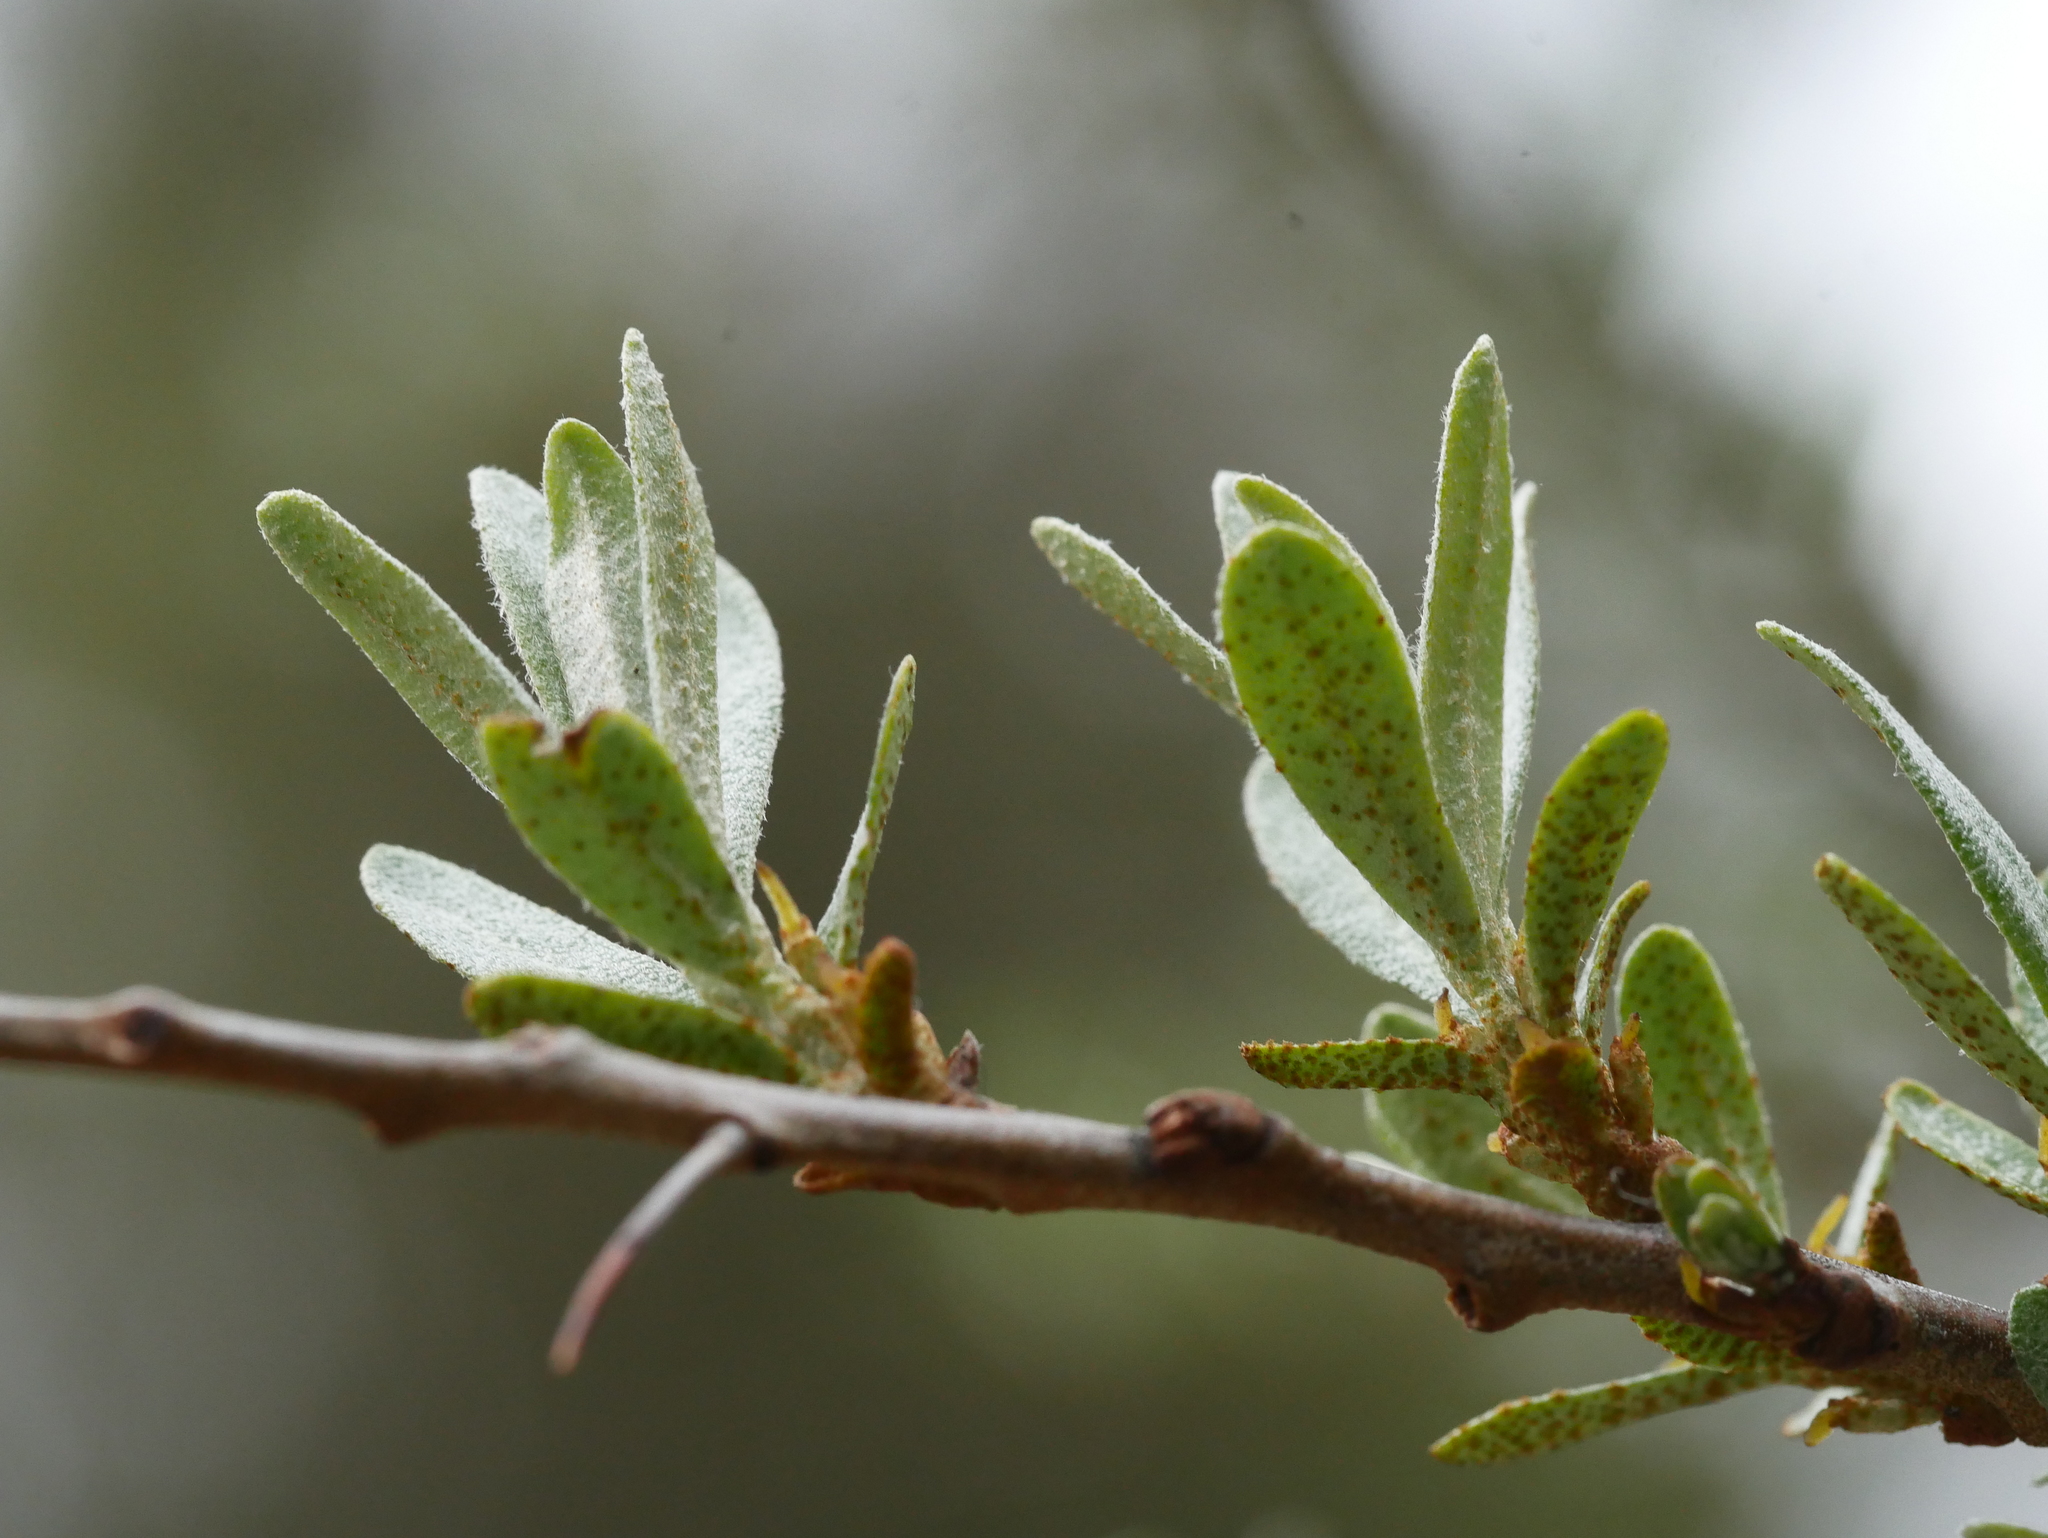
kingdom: Plantae
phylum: Tracheophyta
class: Magnoliopsida
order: Rosales
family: Elaeagnaceae
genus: Hippophae
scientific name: Hippophae rhamnoides
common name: Sea-buckthorn
